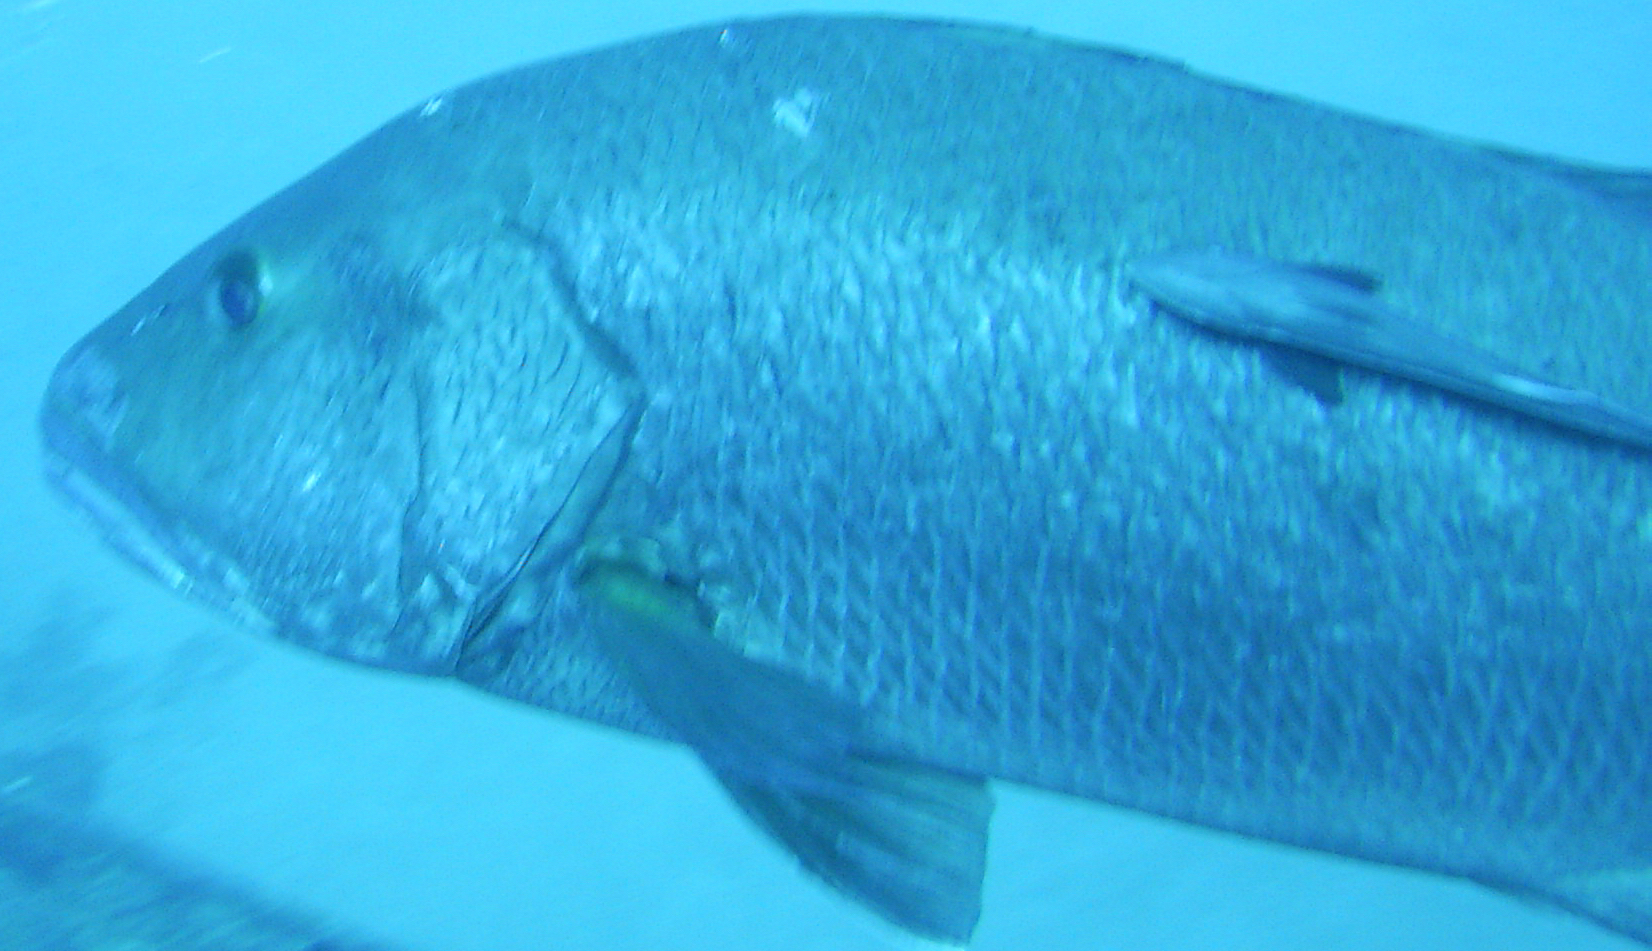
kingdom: Animalia
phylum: Chordata
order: Perciformes
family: Lutjanidae
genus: Lutjanus
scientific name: Lutjanus cyanopterus
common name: Cubera snapper
